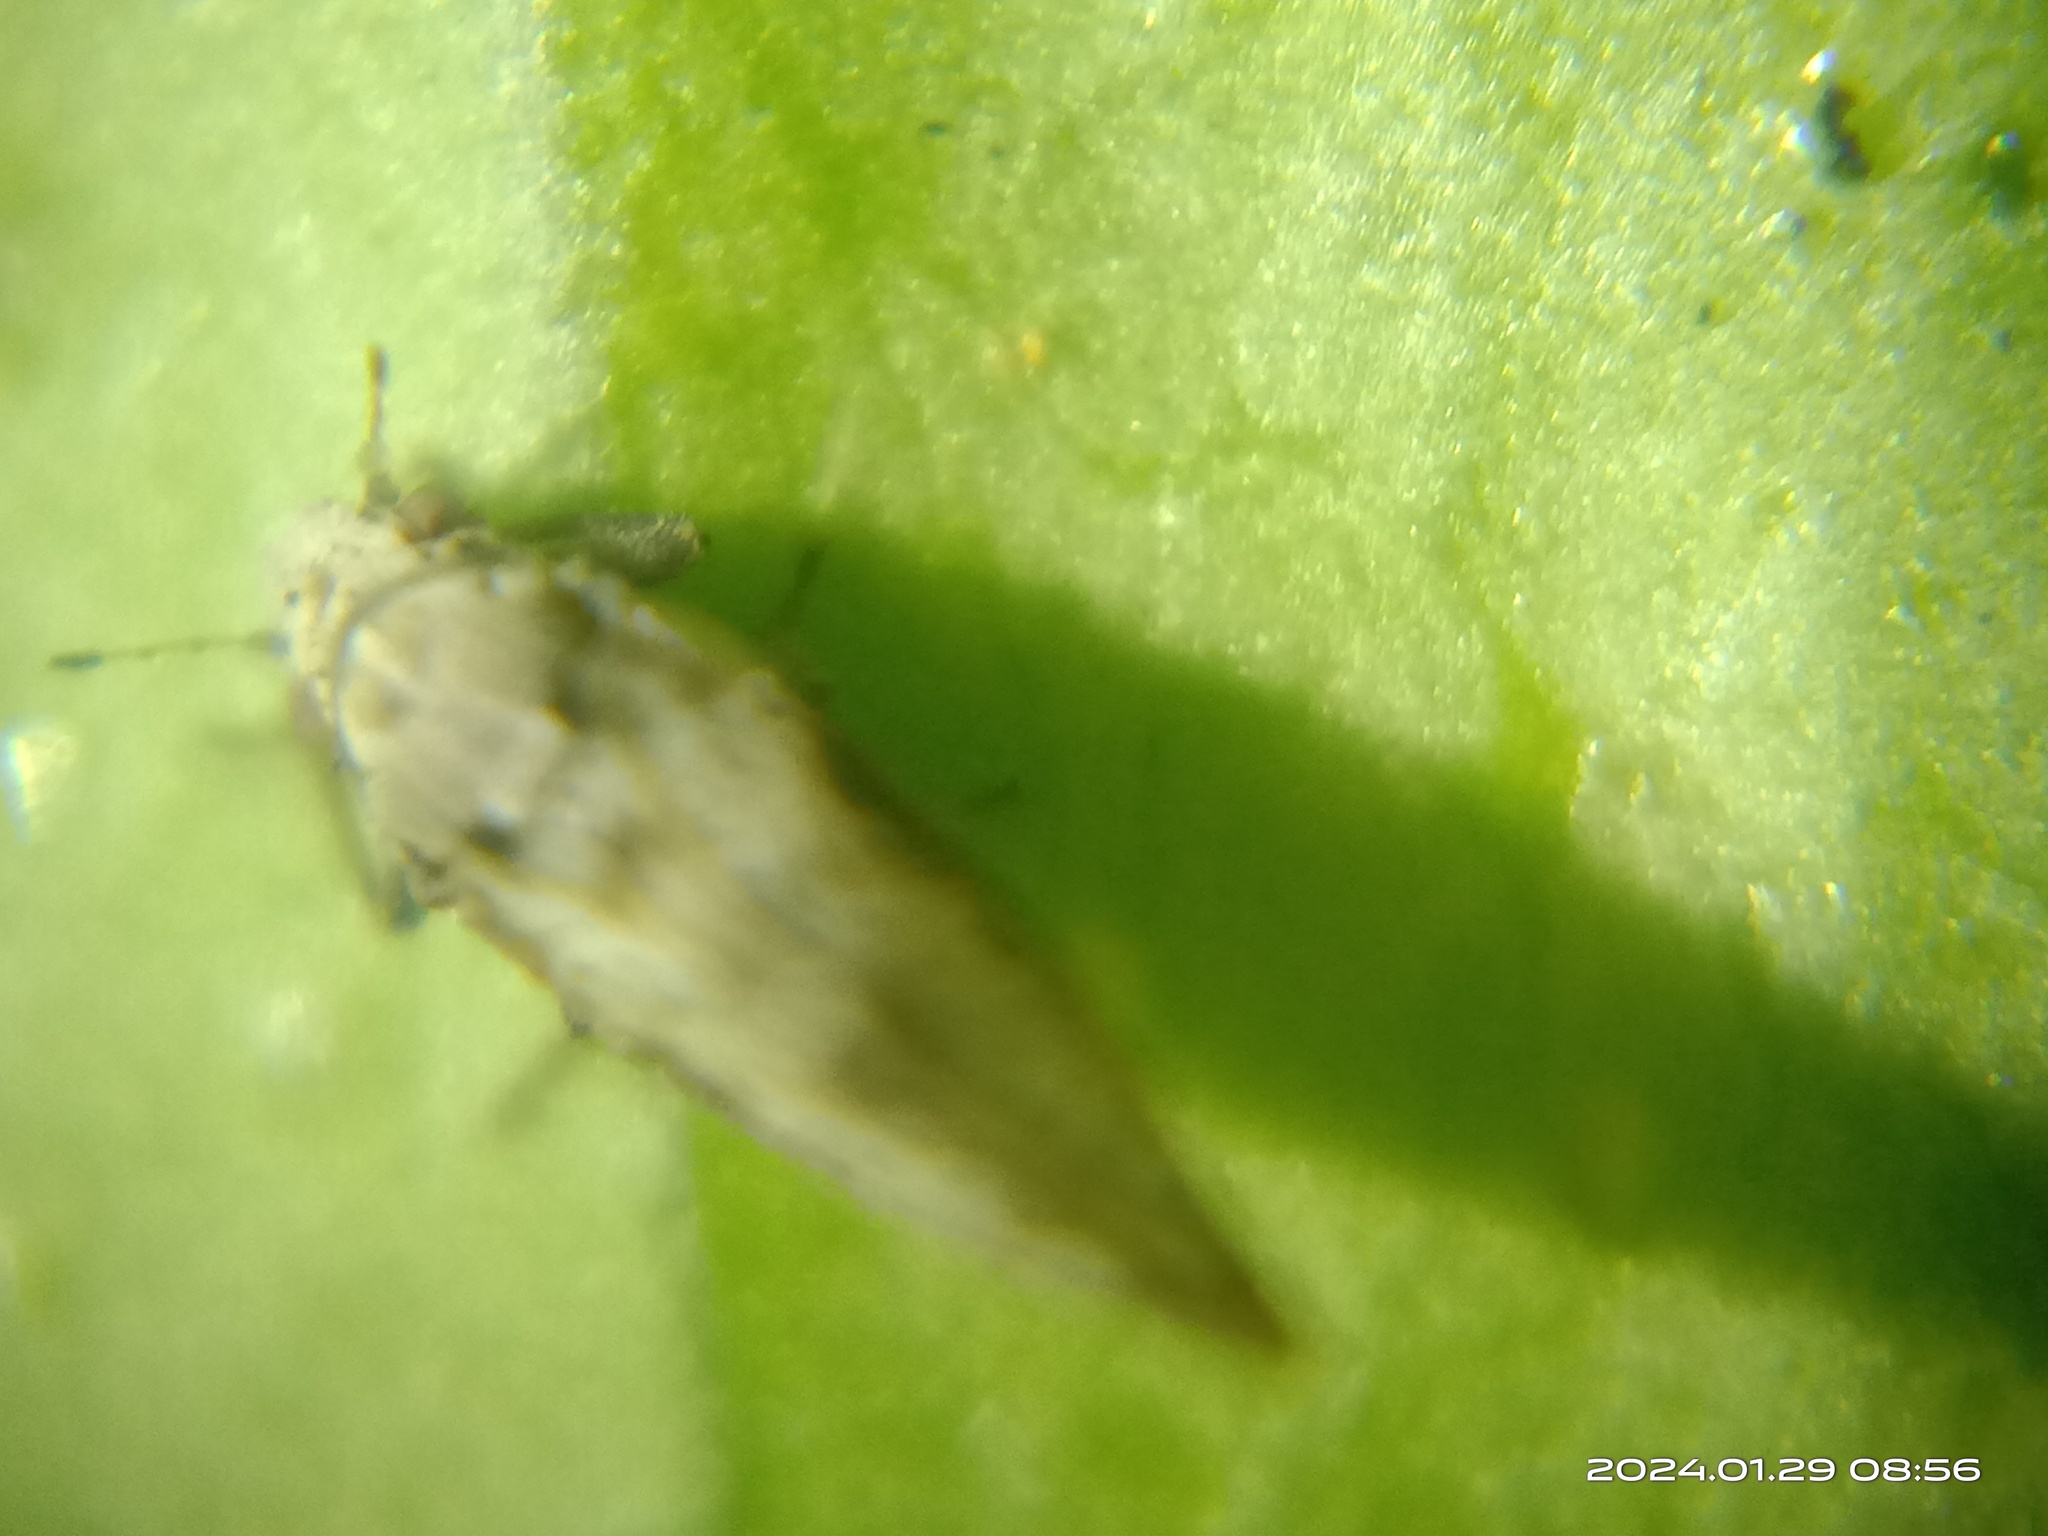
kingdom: Animalia
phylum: Arthropoda
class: Insecta
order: Hemiptera
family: Liviidae
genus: Diaphorina
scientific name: Diaphorina citri
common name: Asian citrus psyllid
